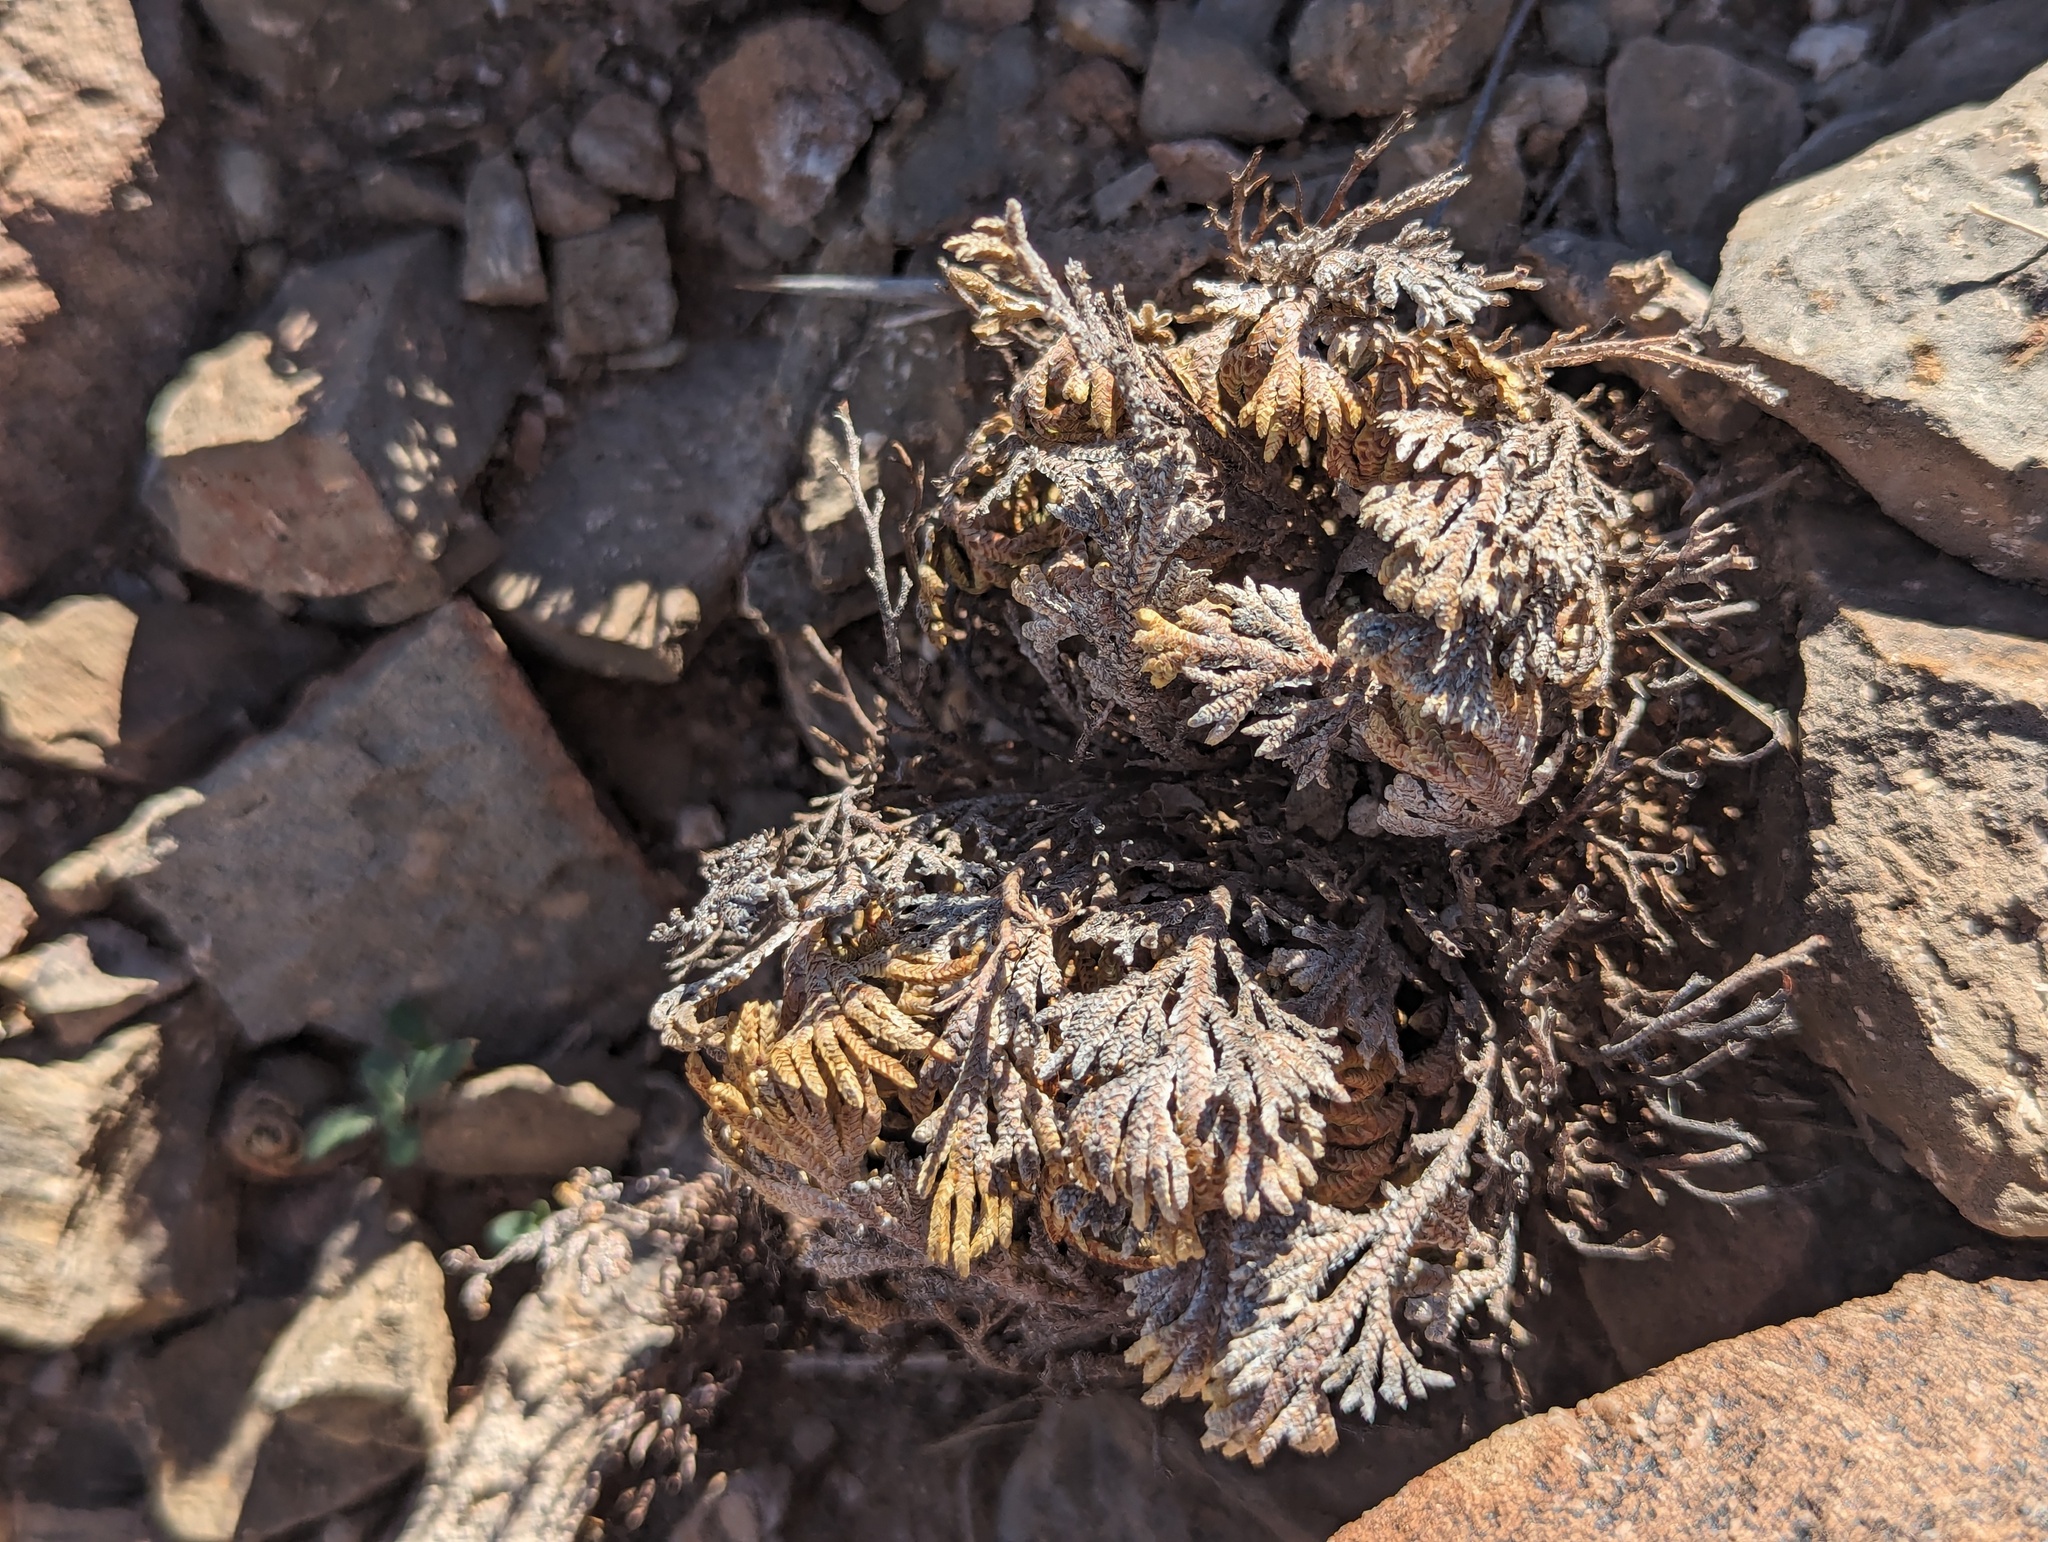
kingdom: Plantae
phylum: Tracheophyta
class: Lycopodiopsida
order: Selaginellales
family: Selaginellaceae
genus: Selaginella
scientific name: Selaginella lepidophylla
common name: Rose-of-jericho
